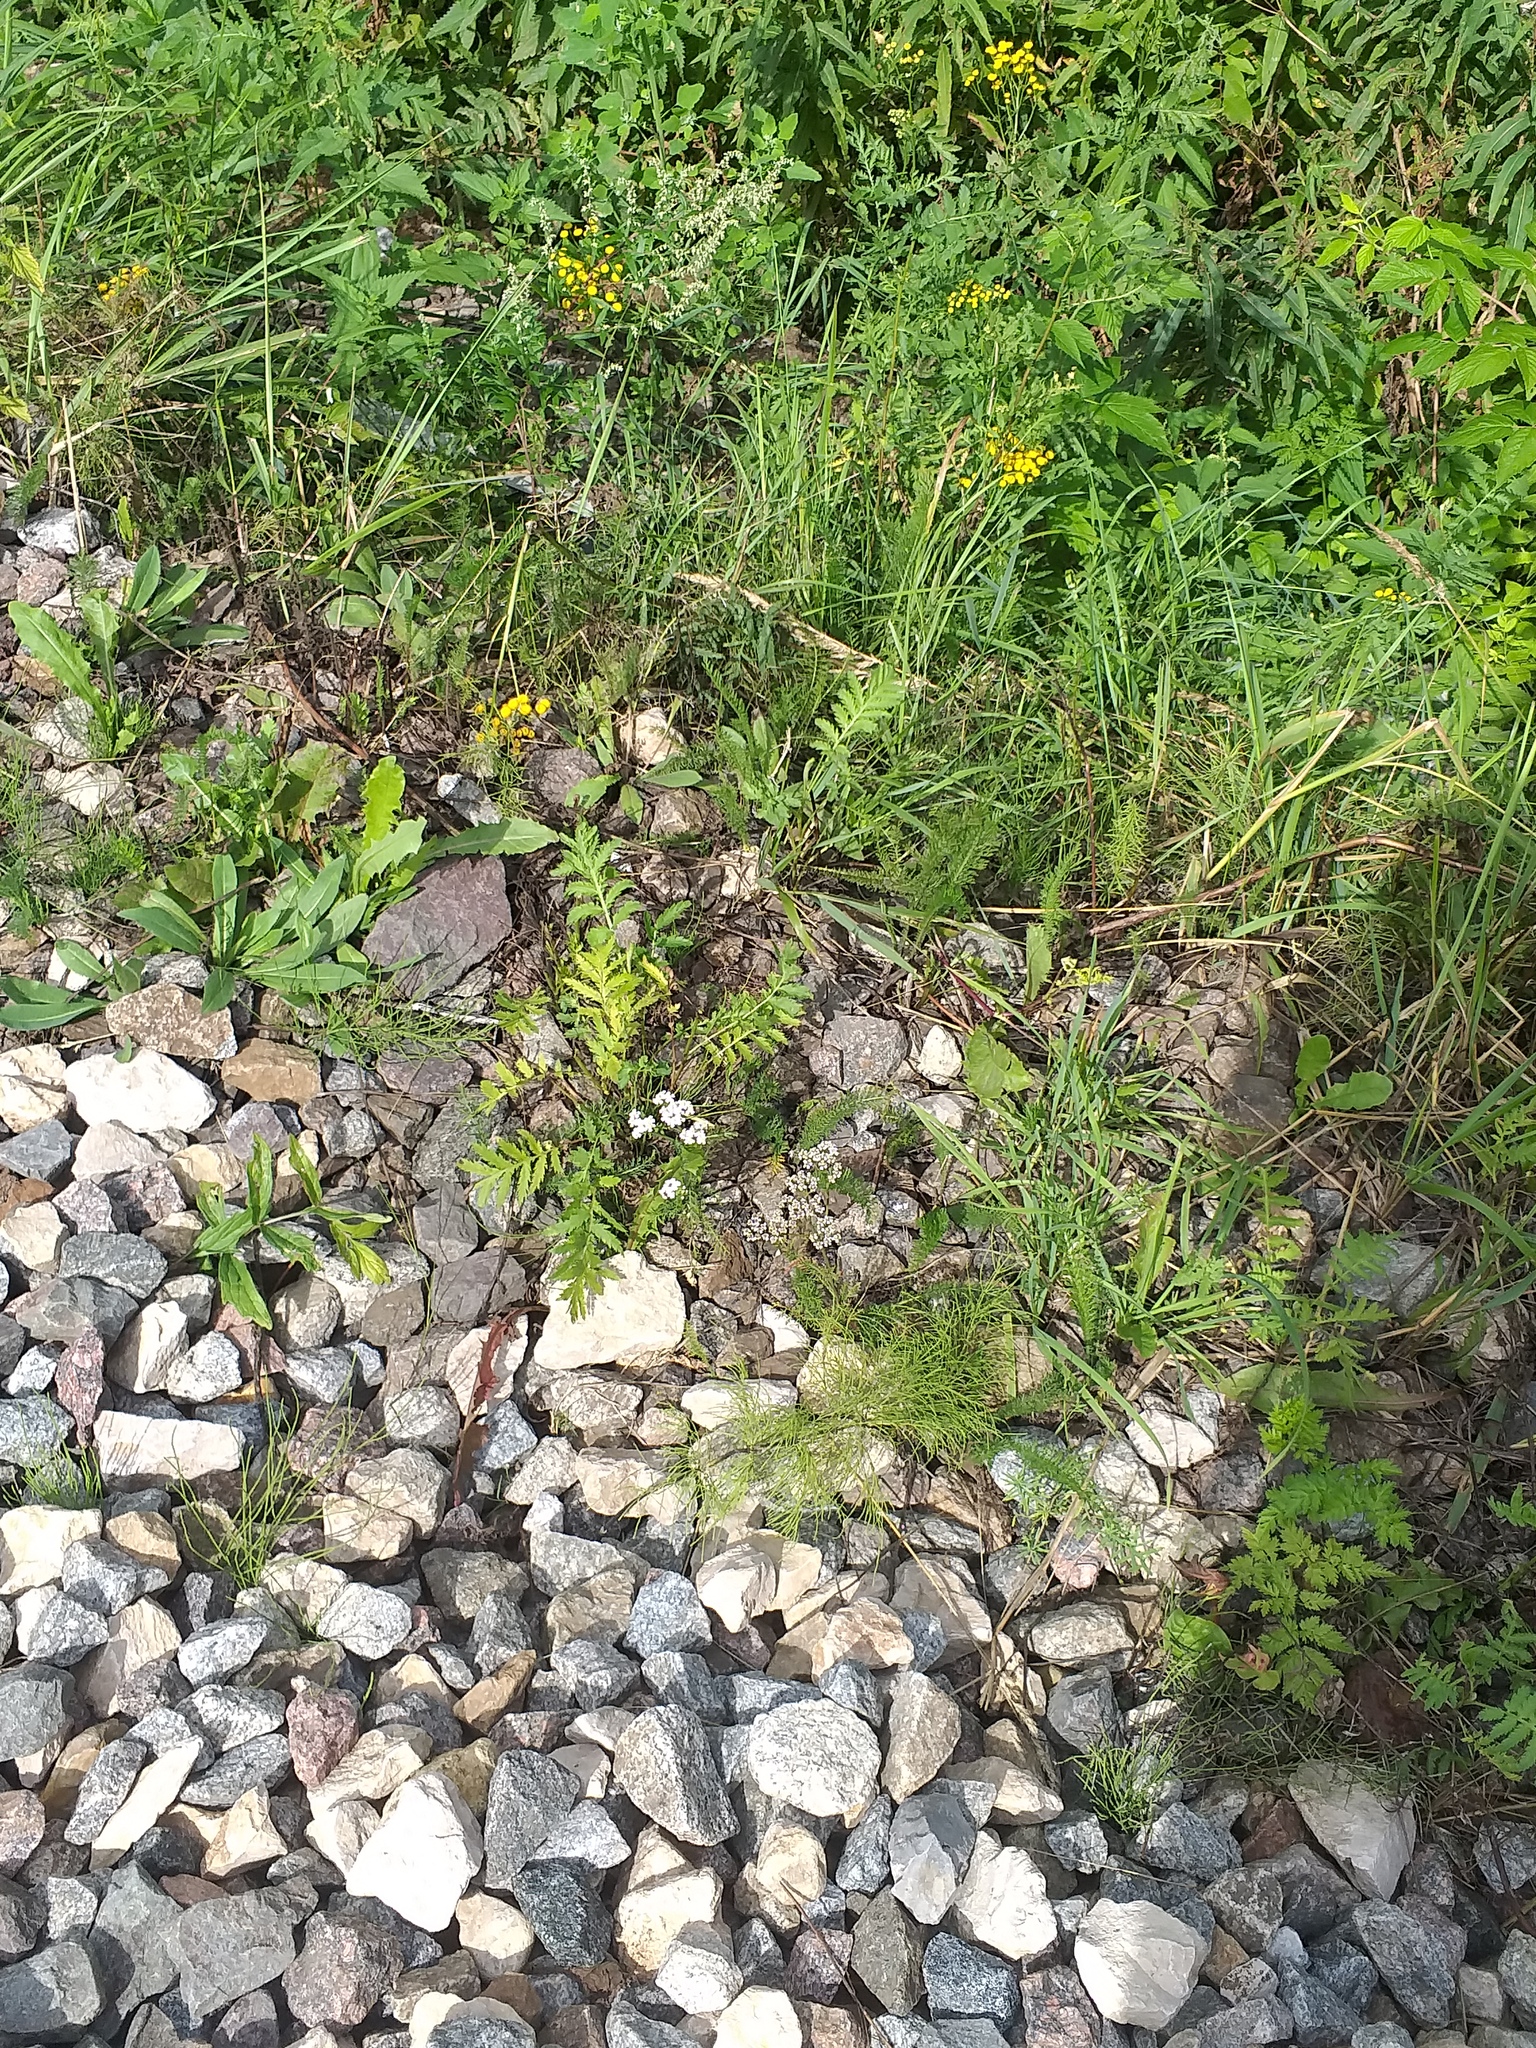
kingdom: Plantae
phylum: Tracheophyta
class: Polypodiopsida
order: Equisetales
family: Equisetaceae
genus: Equisetum
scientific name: Equisetum sylvaticum
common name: Wood horsetail
